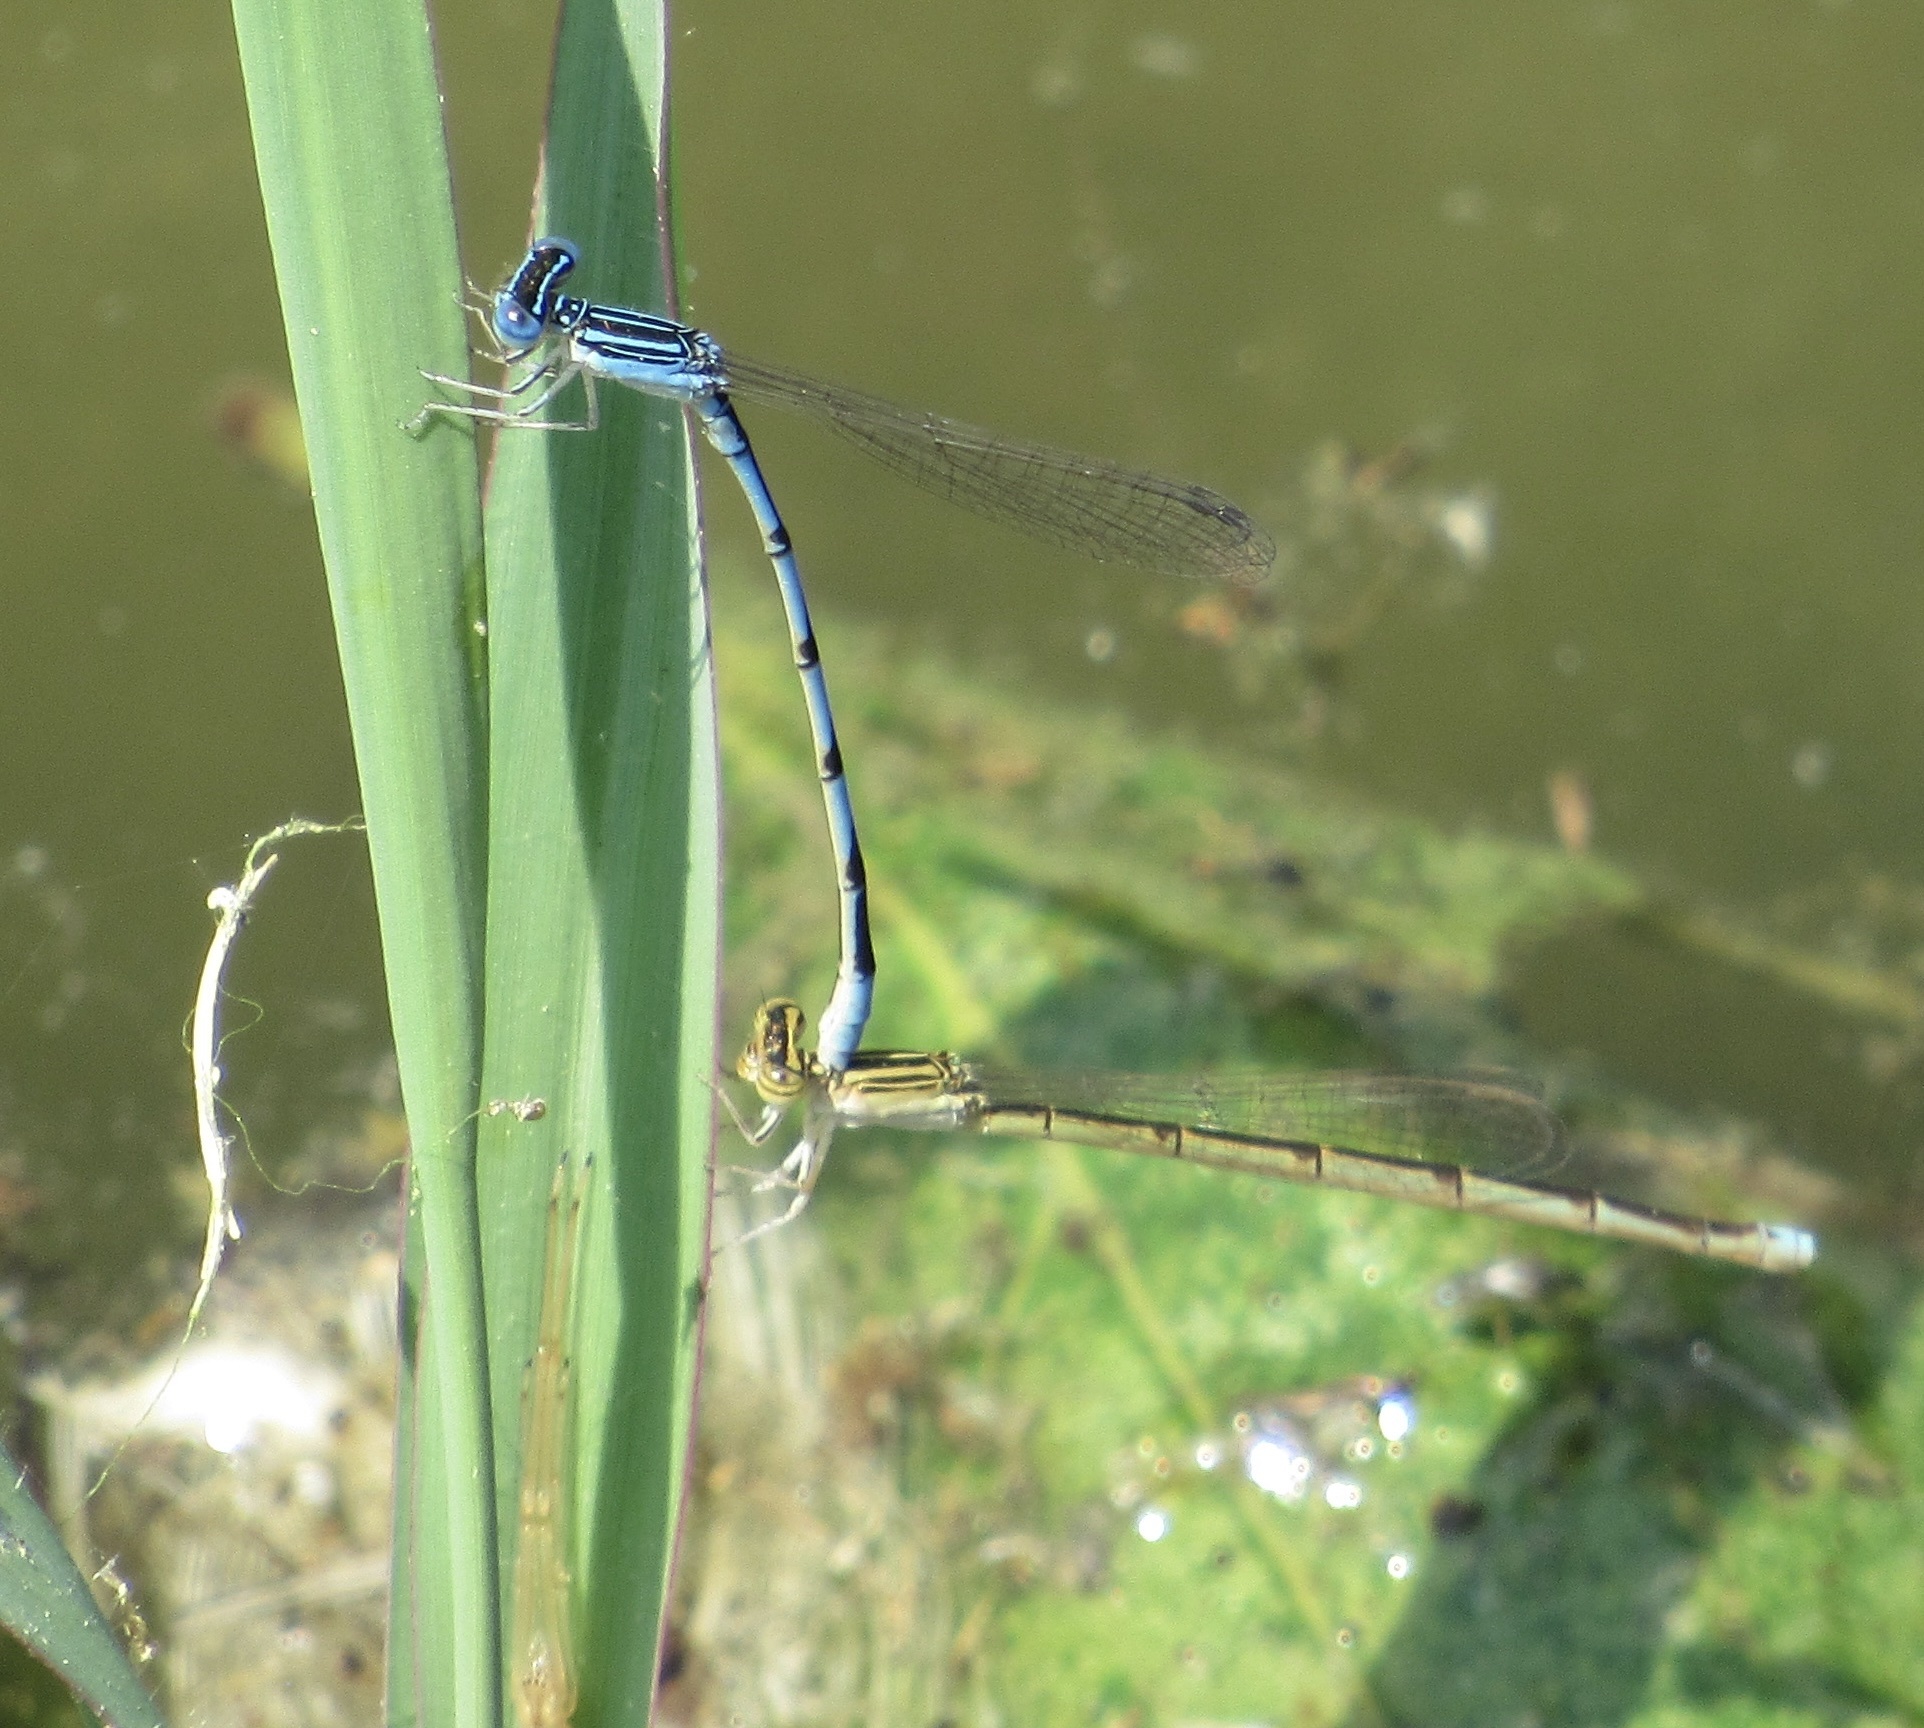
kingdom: Animalia
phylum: Arthropoda
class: Insecta
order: Odonata
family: Coenagrionidae
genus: Enallagma
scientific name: Enallagma basidens
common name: Double-striped bluet
